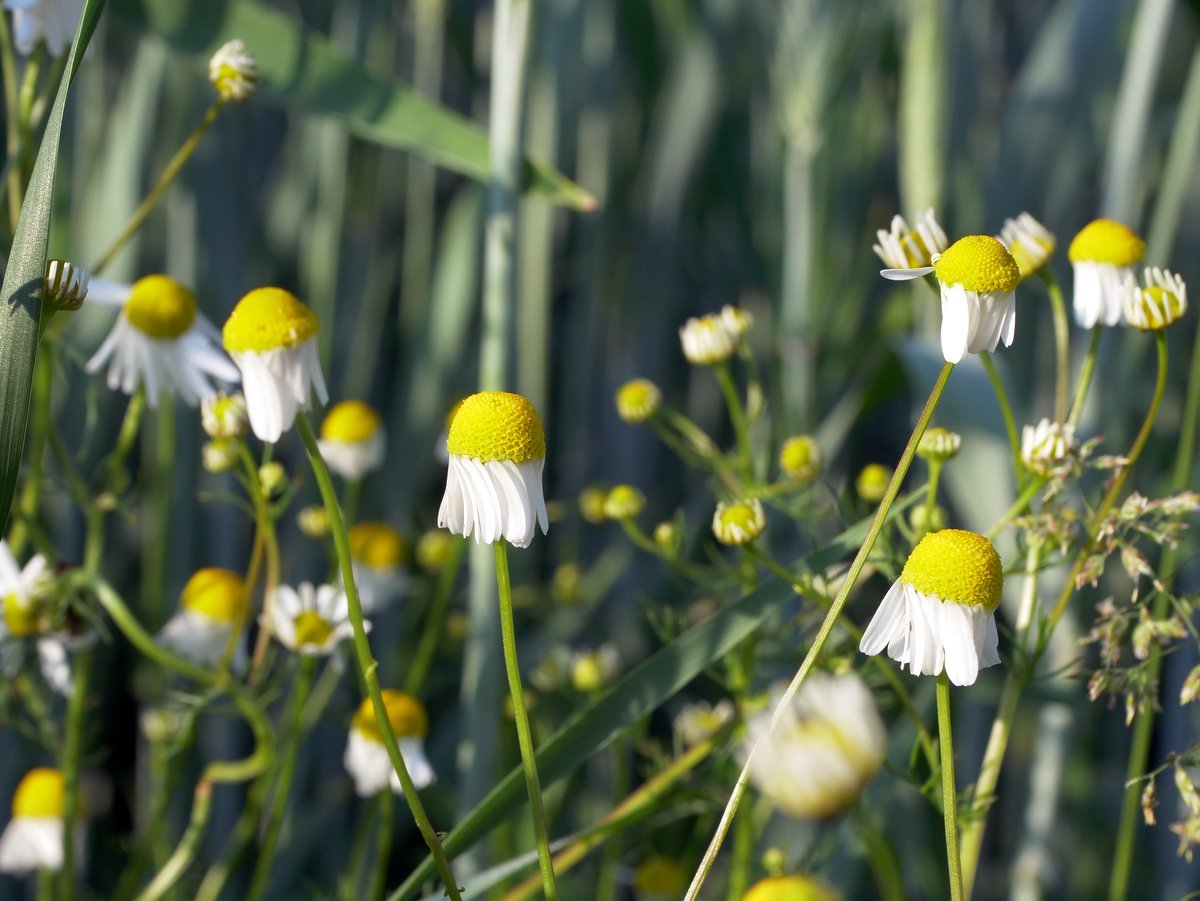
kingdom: Plantae
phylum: Tracheophyta
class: Magnoliopsida
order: Asterales
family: Asteraceae
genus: Matricaria
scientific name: Matricaria chamomilla
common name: Scented mayweed
